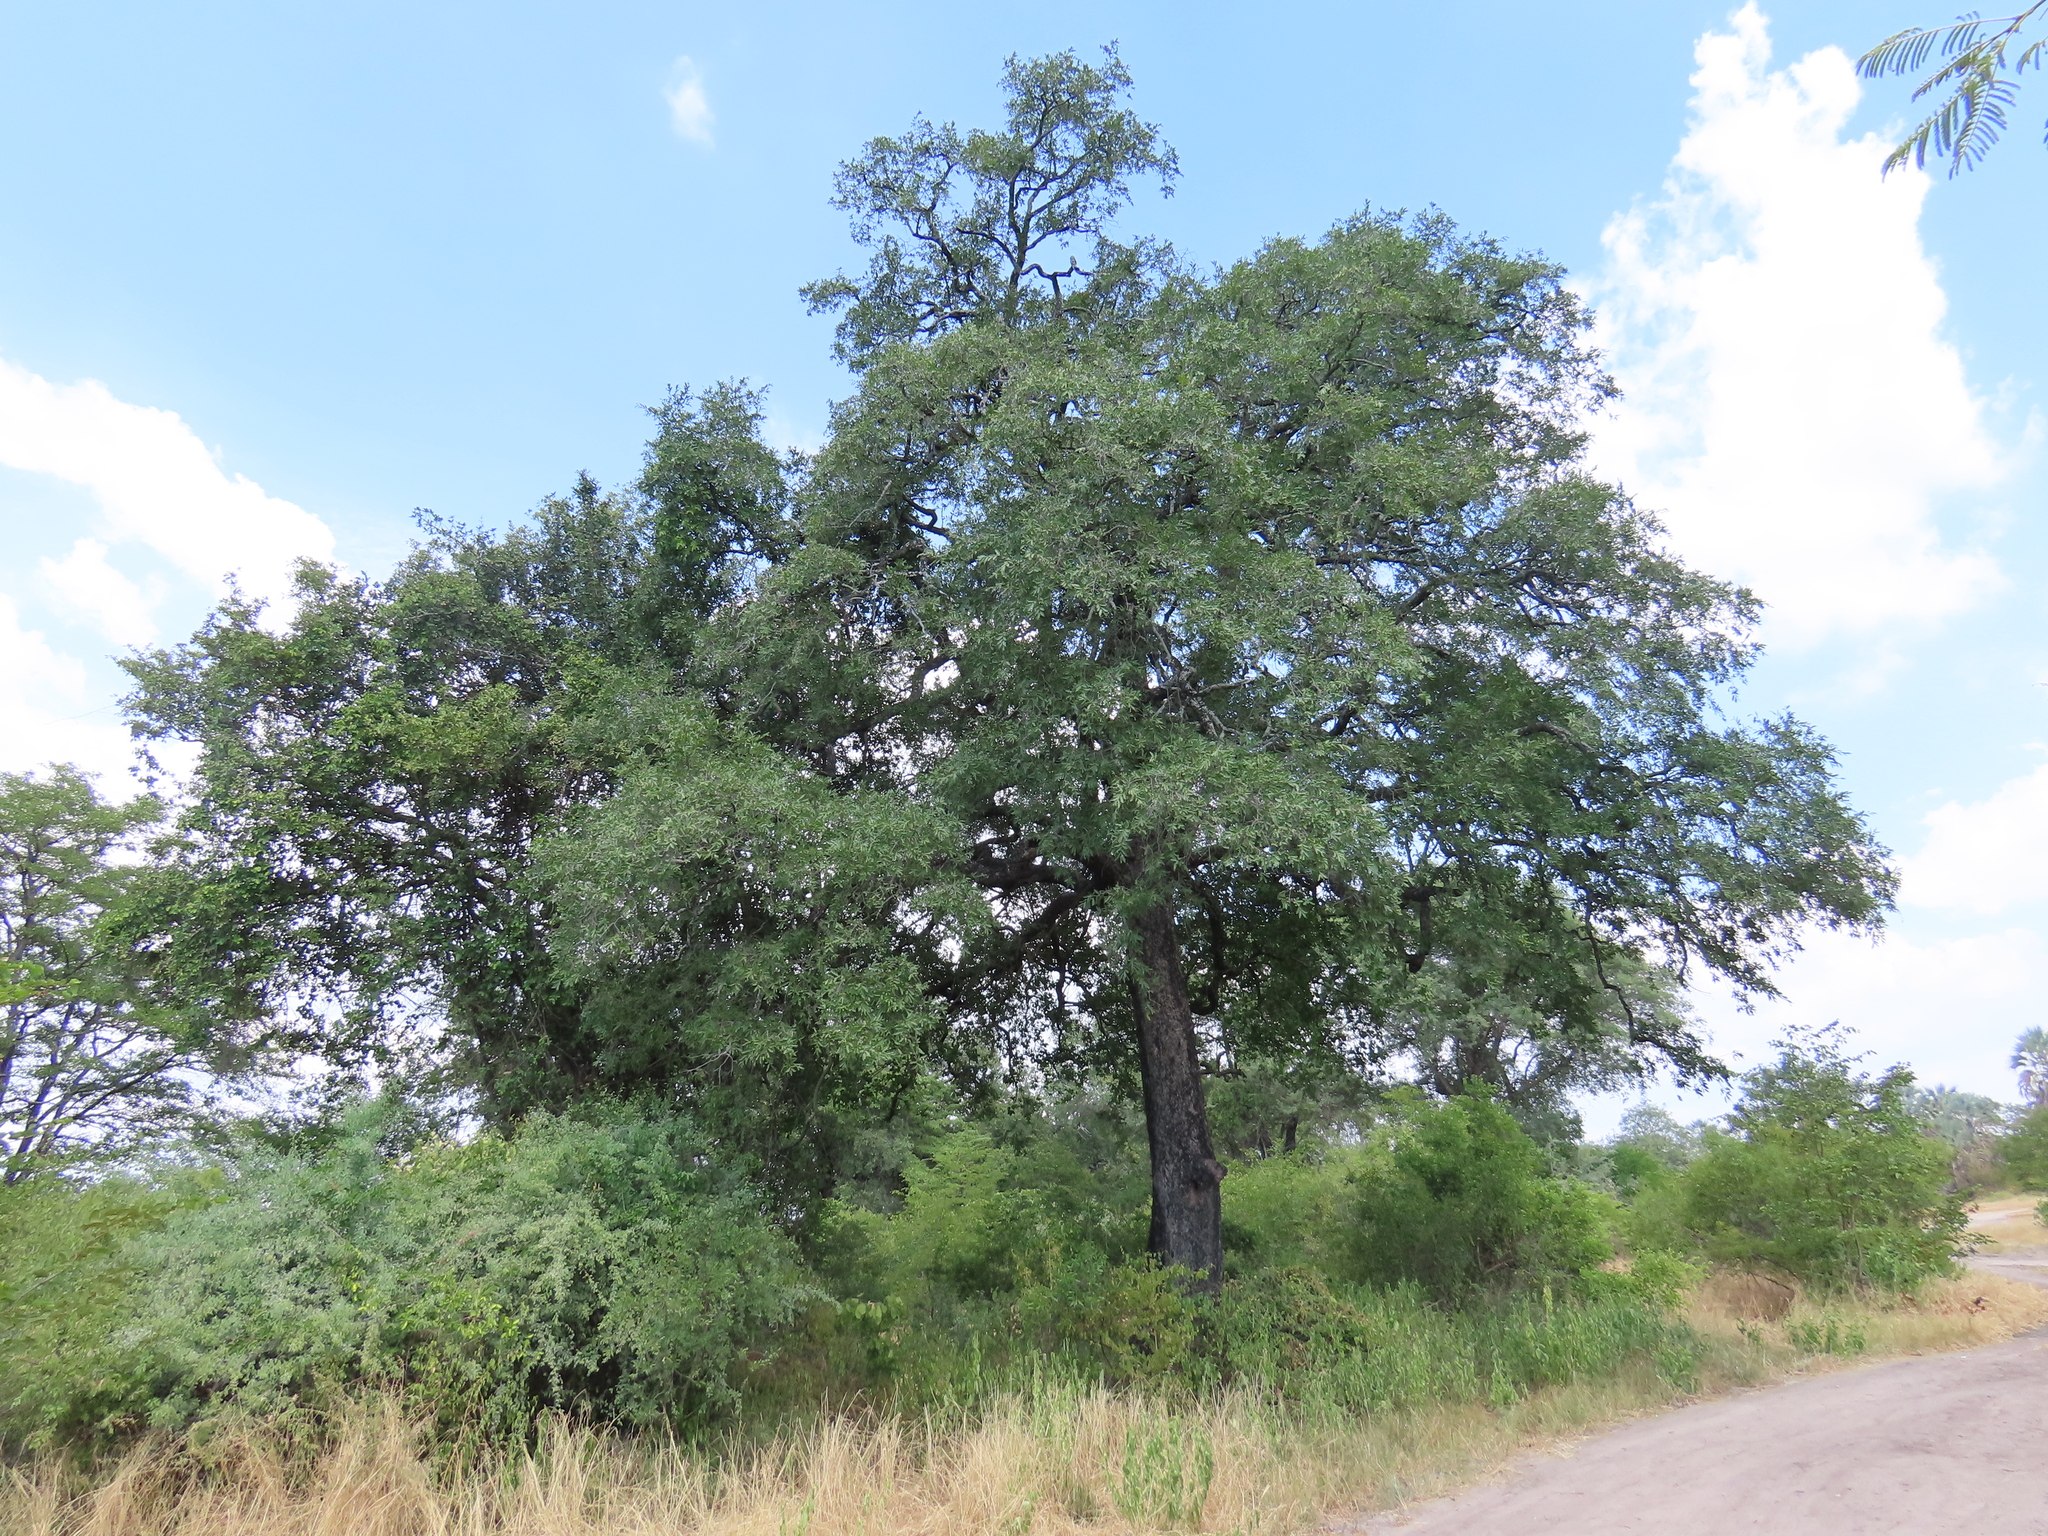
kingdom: Plantae
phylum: Tracheophyta
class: Magnoliopsida
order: Ericales
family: Ebenaceae
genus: Diospyros
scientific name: Diospyros mespiliformis
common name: Ebony diospyros
